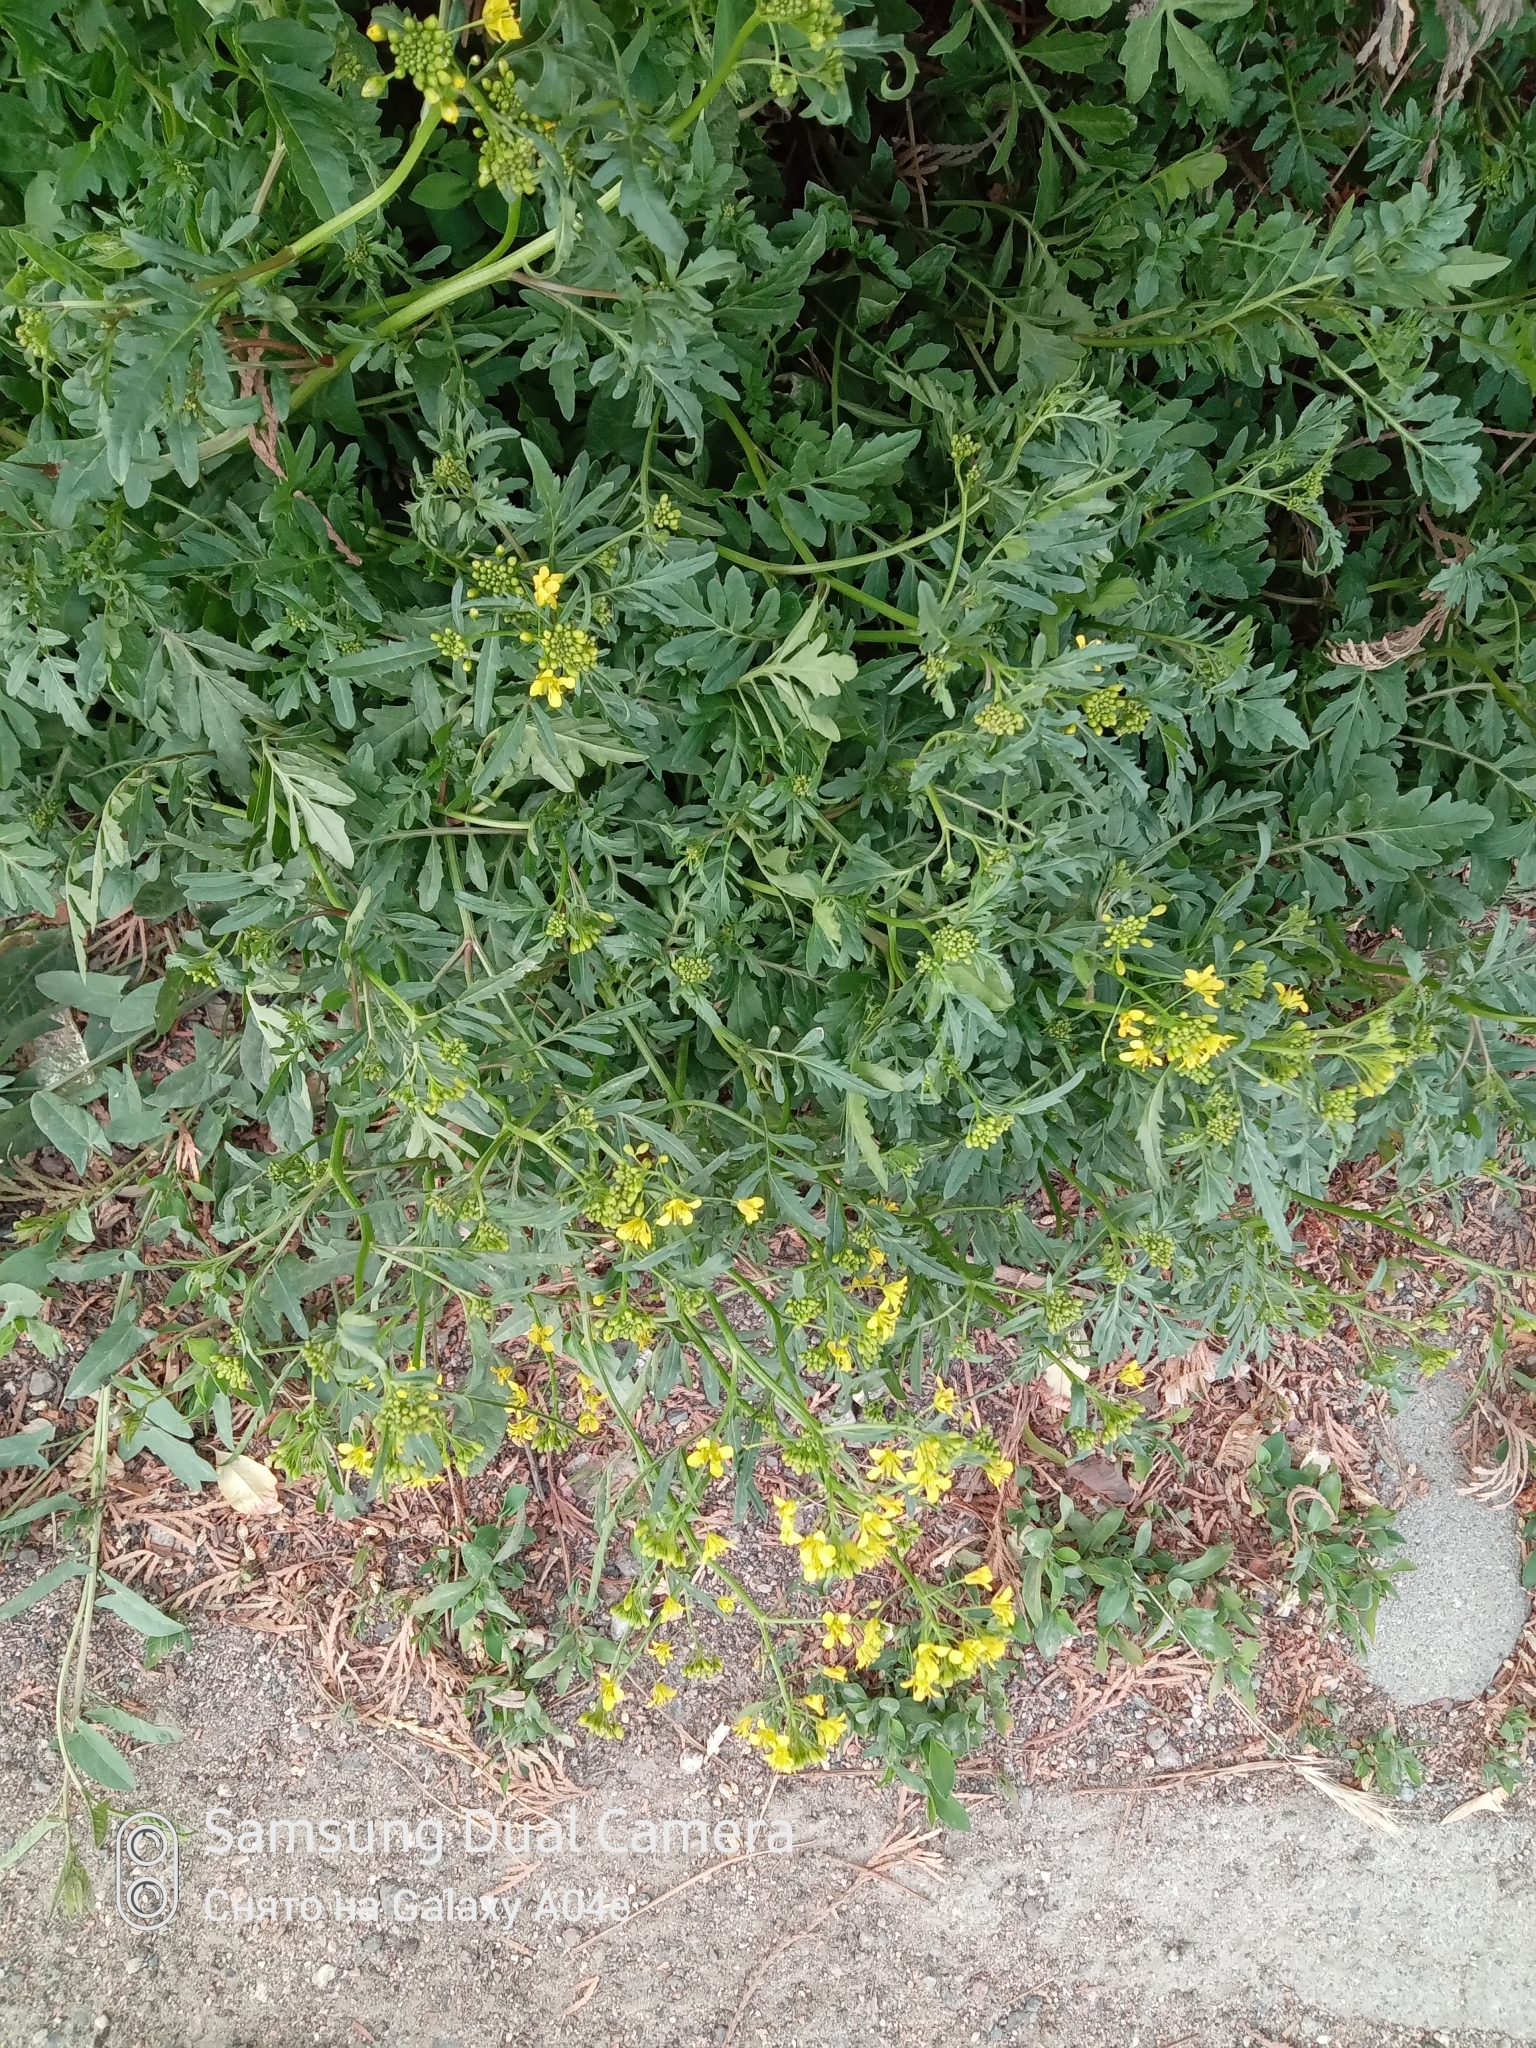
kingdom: Plantae
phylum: Tracheophyta
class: Magnoliopsida
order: Brassicales
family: Brassicaceae
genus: Rorippa
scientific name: Rorippa sylvestris
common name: Creeping yellowcress
